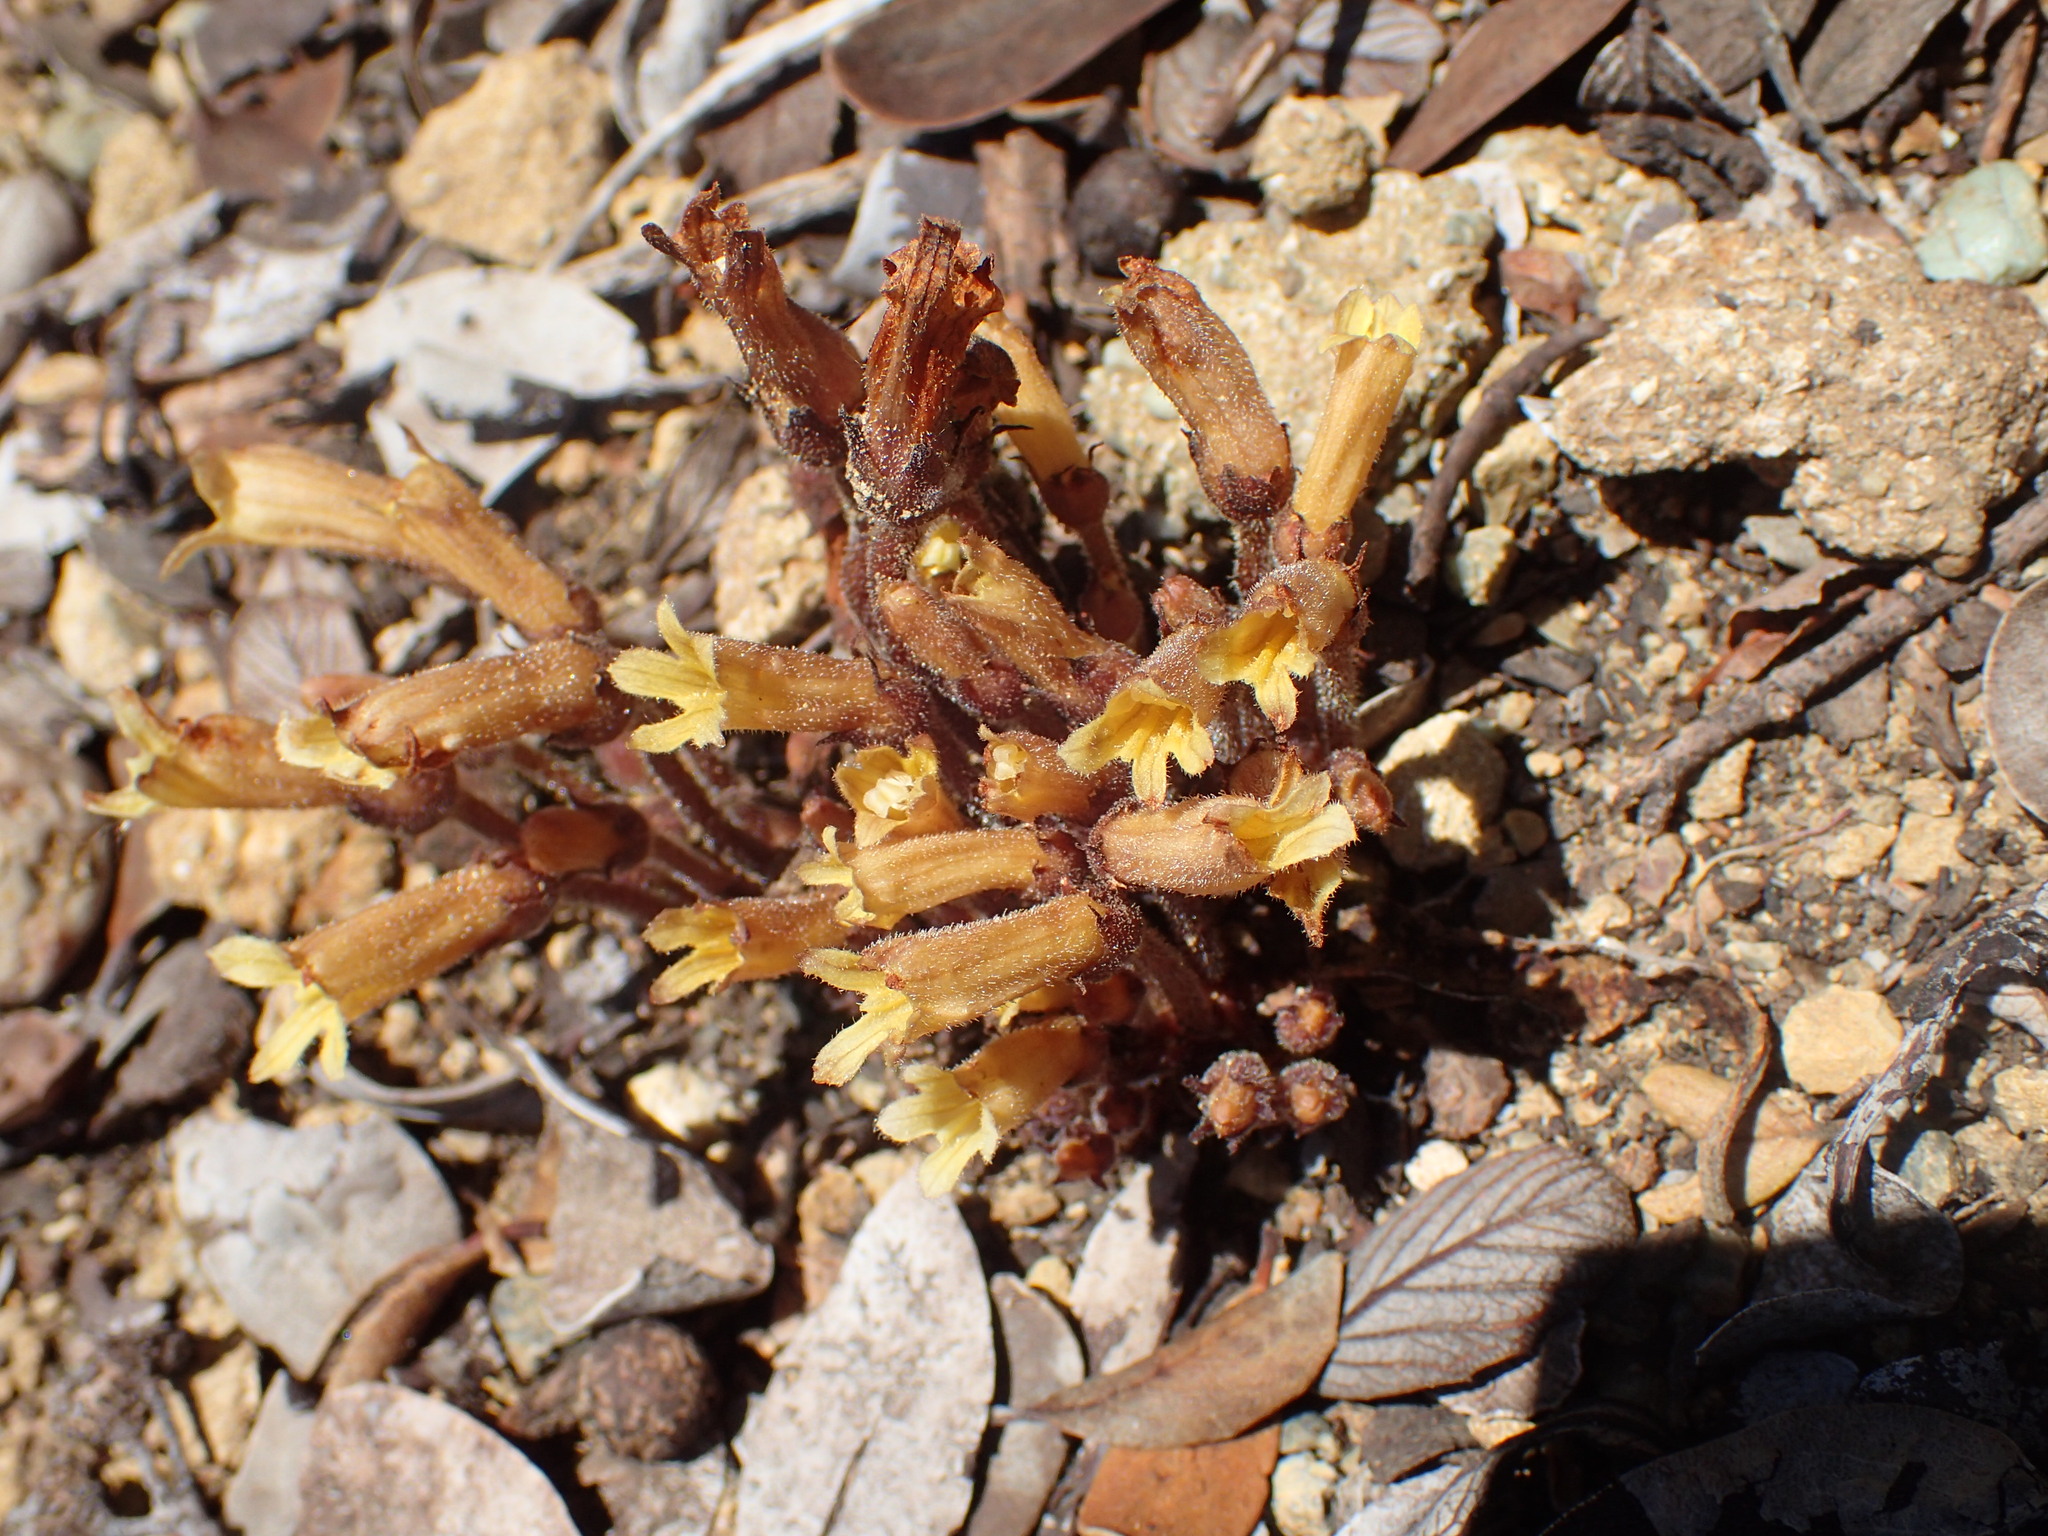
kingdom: Plantae
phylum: Tracheophyta
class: Magnoliopsida
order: Lamiales
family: Orobanchaceae
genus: Aphyllon
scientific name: Aphyllon franciscanum
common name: San francisco broomrape
